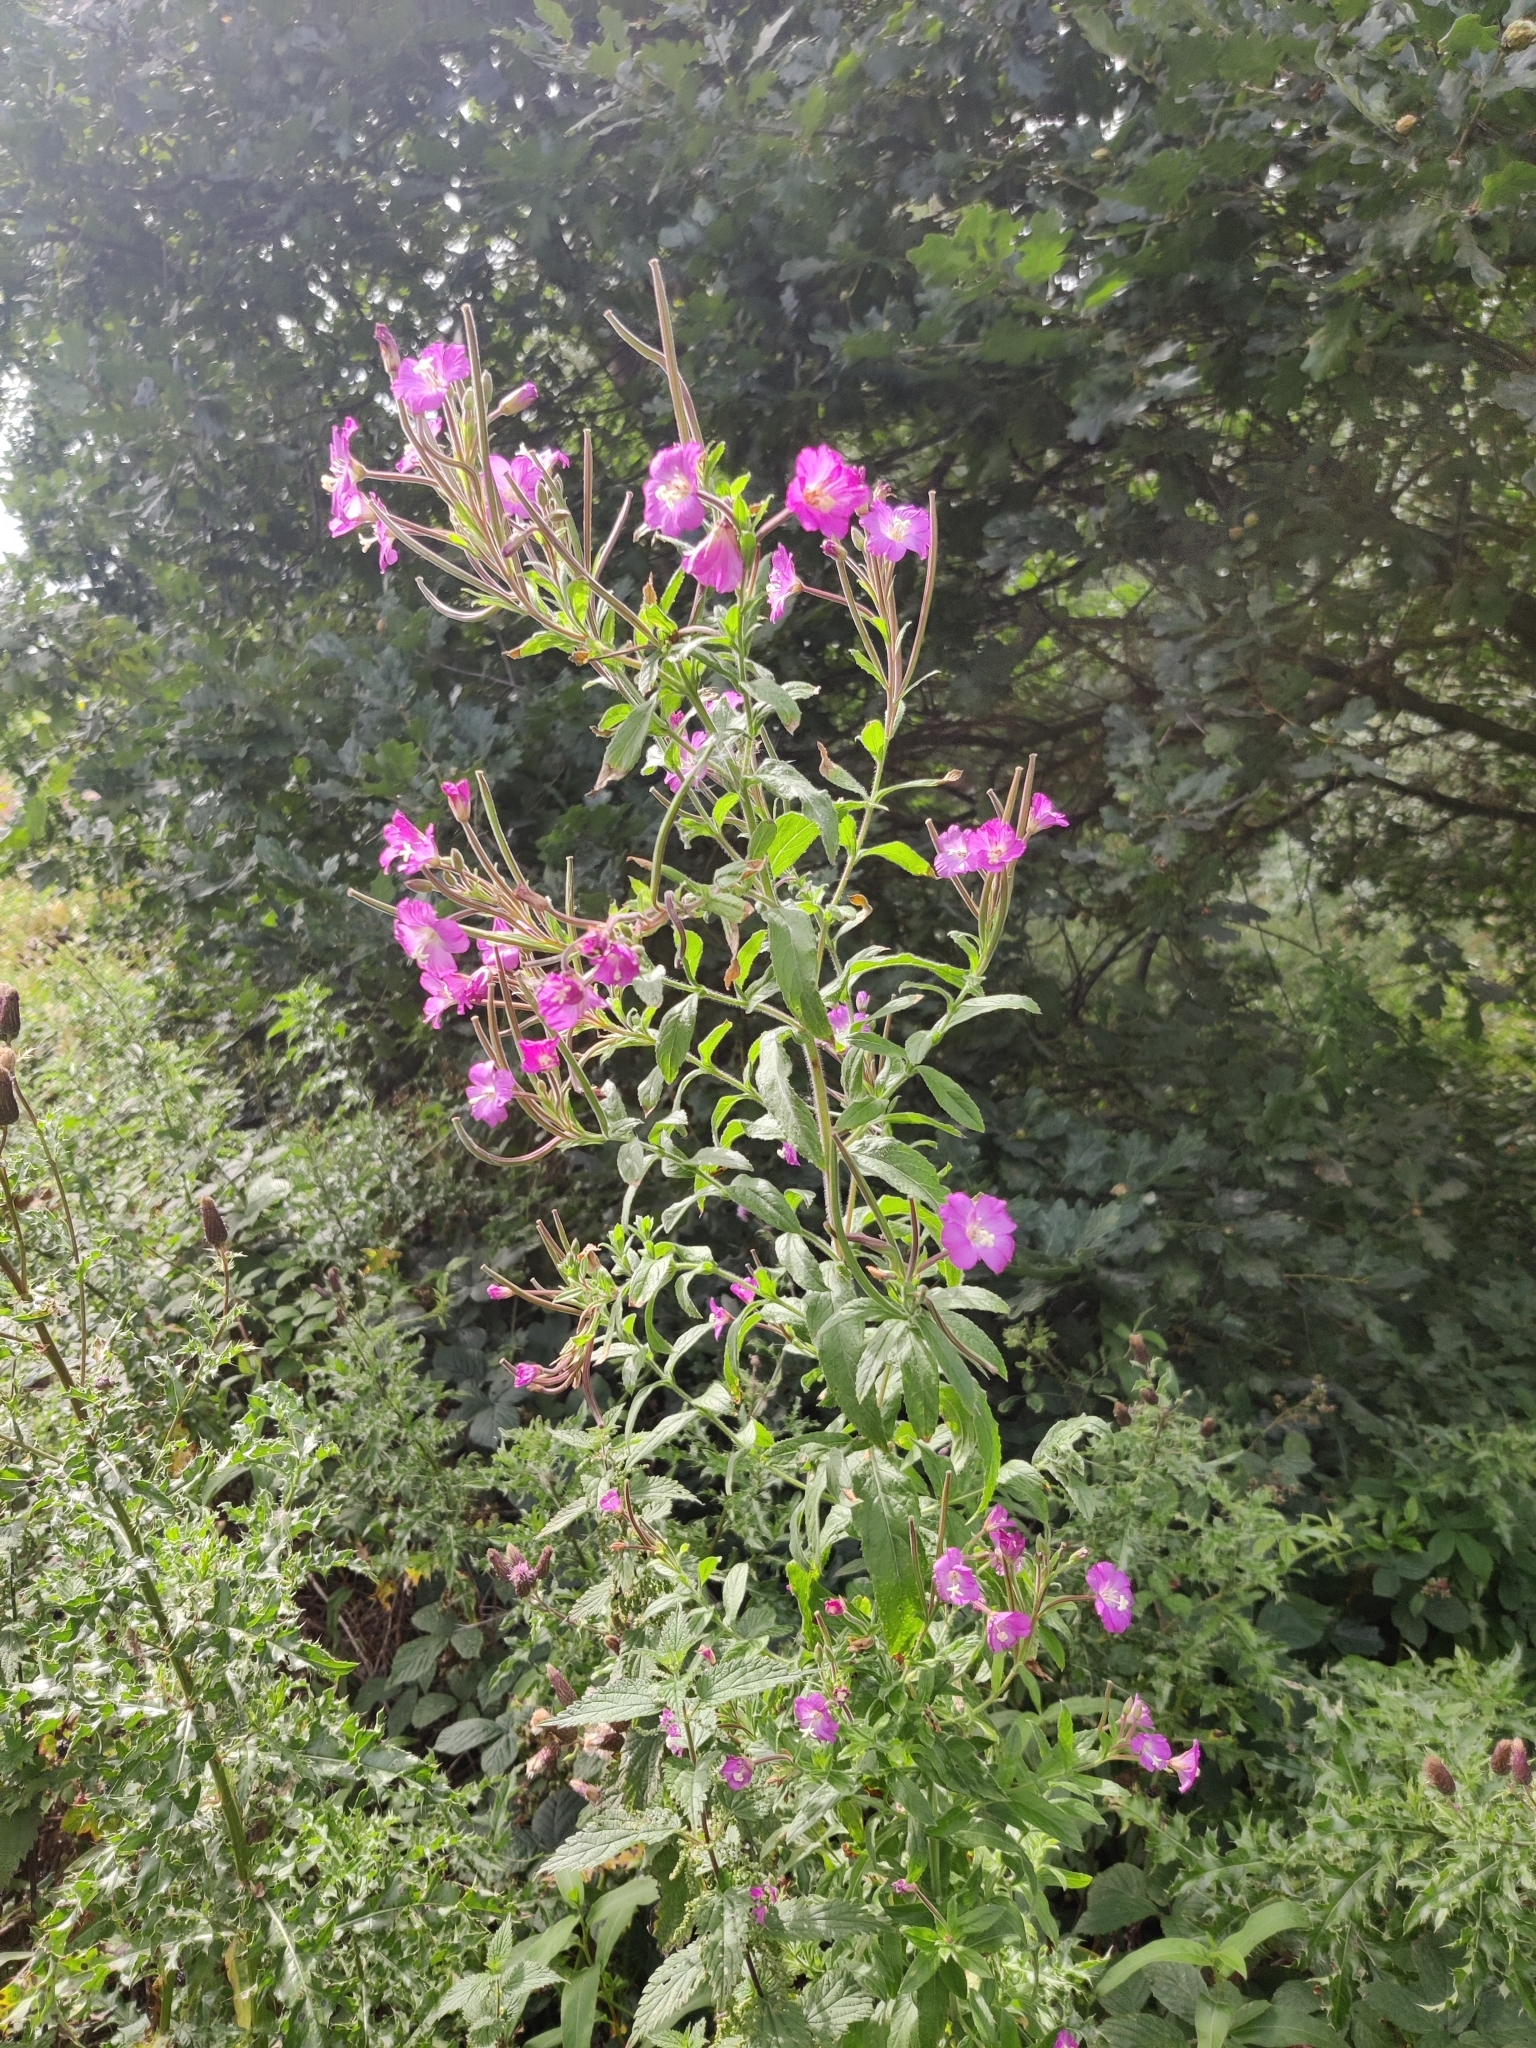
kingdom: Plantae
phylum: Tracheophyta
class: Magnoliopsida
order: Myrtales
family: Onagraceae
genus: Epilobium
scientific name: Epilobium hirsutum
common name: Great willowherb
